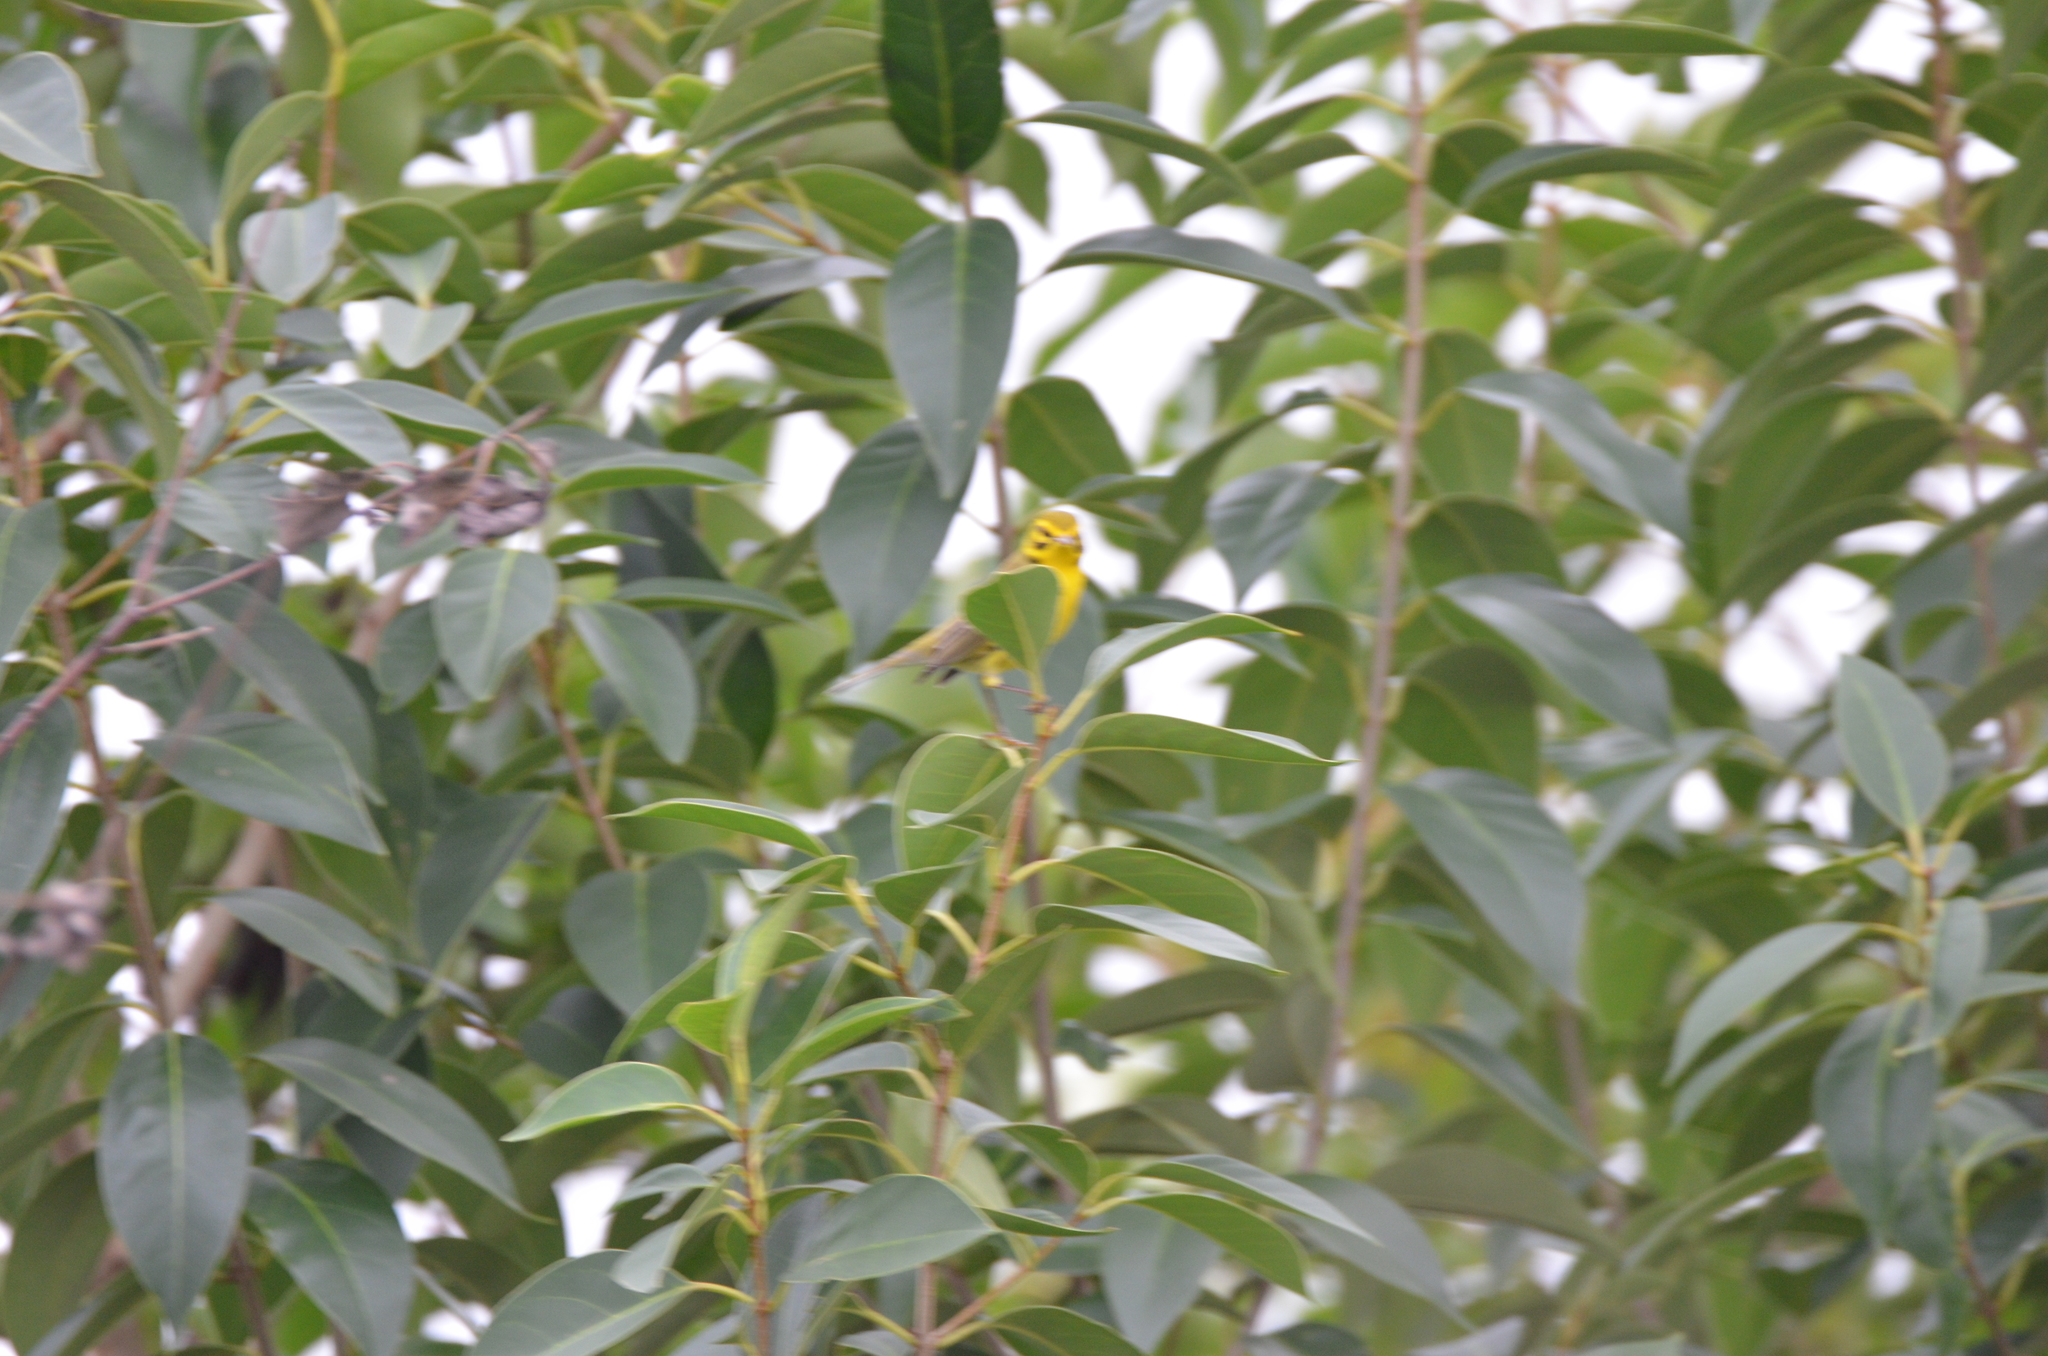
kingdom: Animalia
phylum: Chordata
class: Aves
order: Passeriformes
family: Parulidae
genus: Setophaga
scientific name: Setophaga discolor
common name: Prairie warbler
